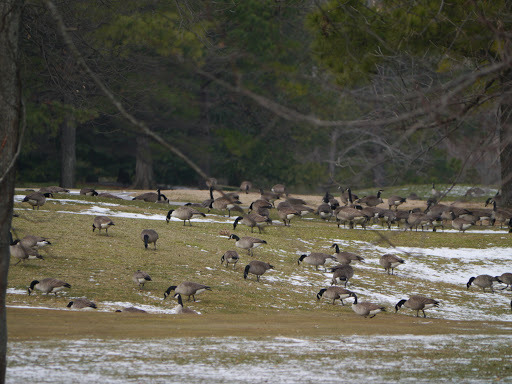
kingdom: Animalia
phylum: Chordata
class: Aves
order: Anseriformes
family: Anatidae
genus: Branta
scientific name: Branta canadensis
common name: Canada goose
